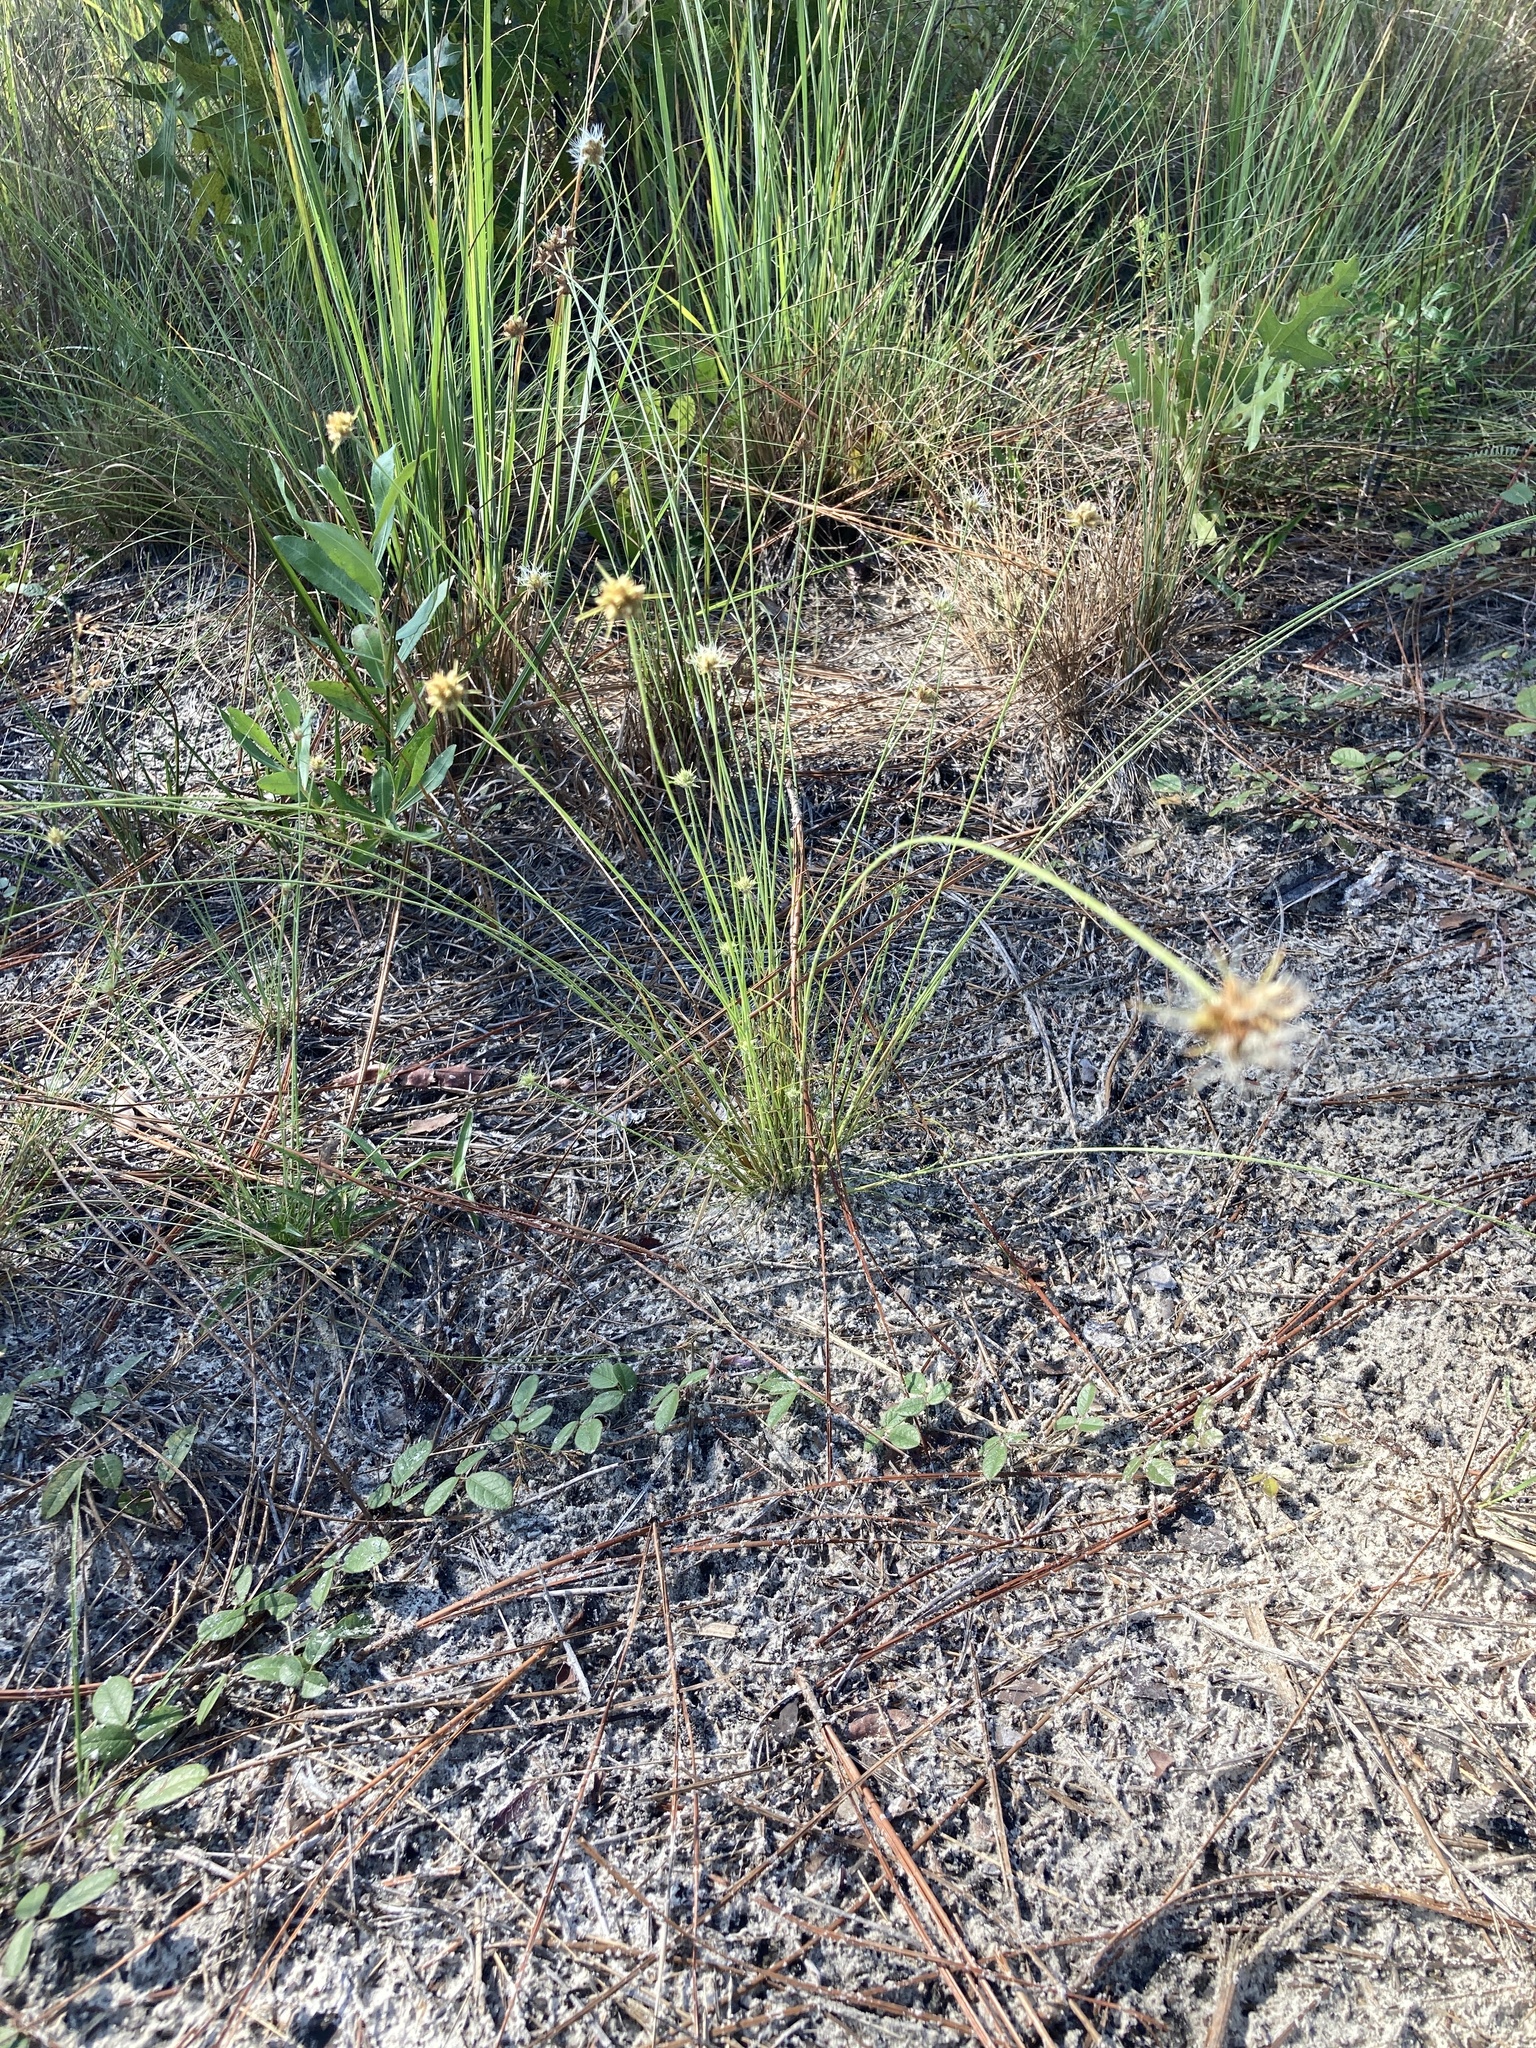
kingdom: Plantae
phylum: Tracheophyta
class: Liliopsida
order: Poales
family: Cyperaceae
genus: Bulbostylis
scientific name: Bulbostylis warei
